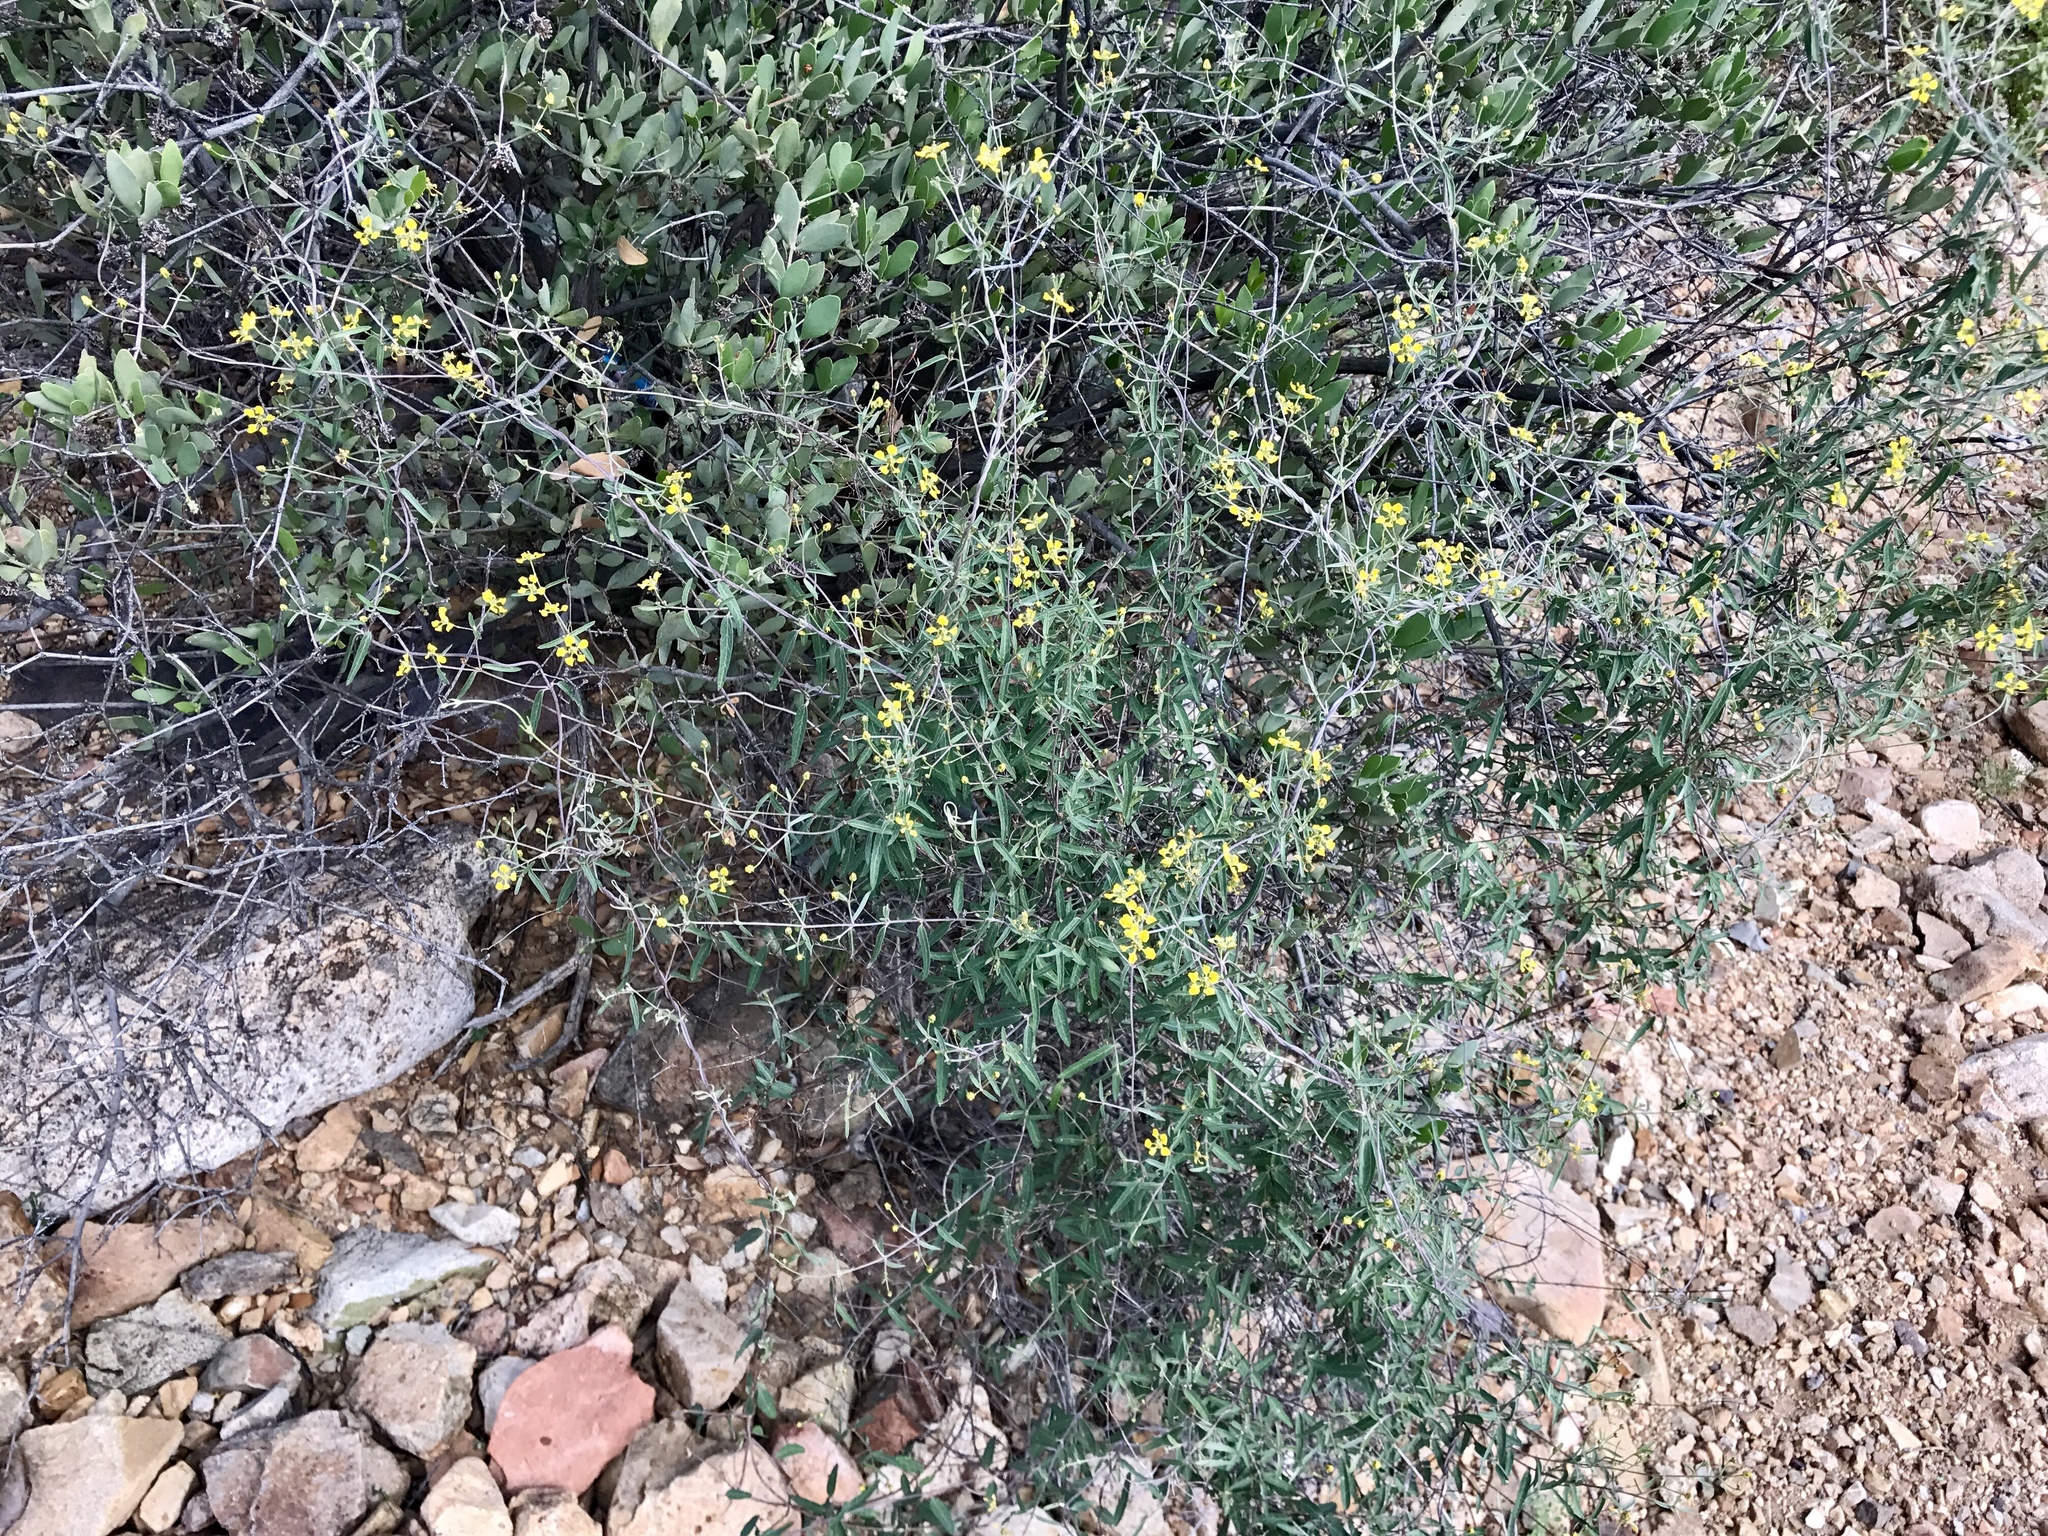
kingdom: Plantae
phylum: Tracheophyta
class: Magnoliopsida
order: Malpighiales
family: Malpighiaceae
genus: Cottsia
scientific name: Cottsia gracilis
